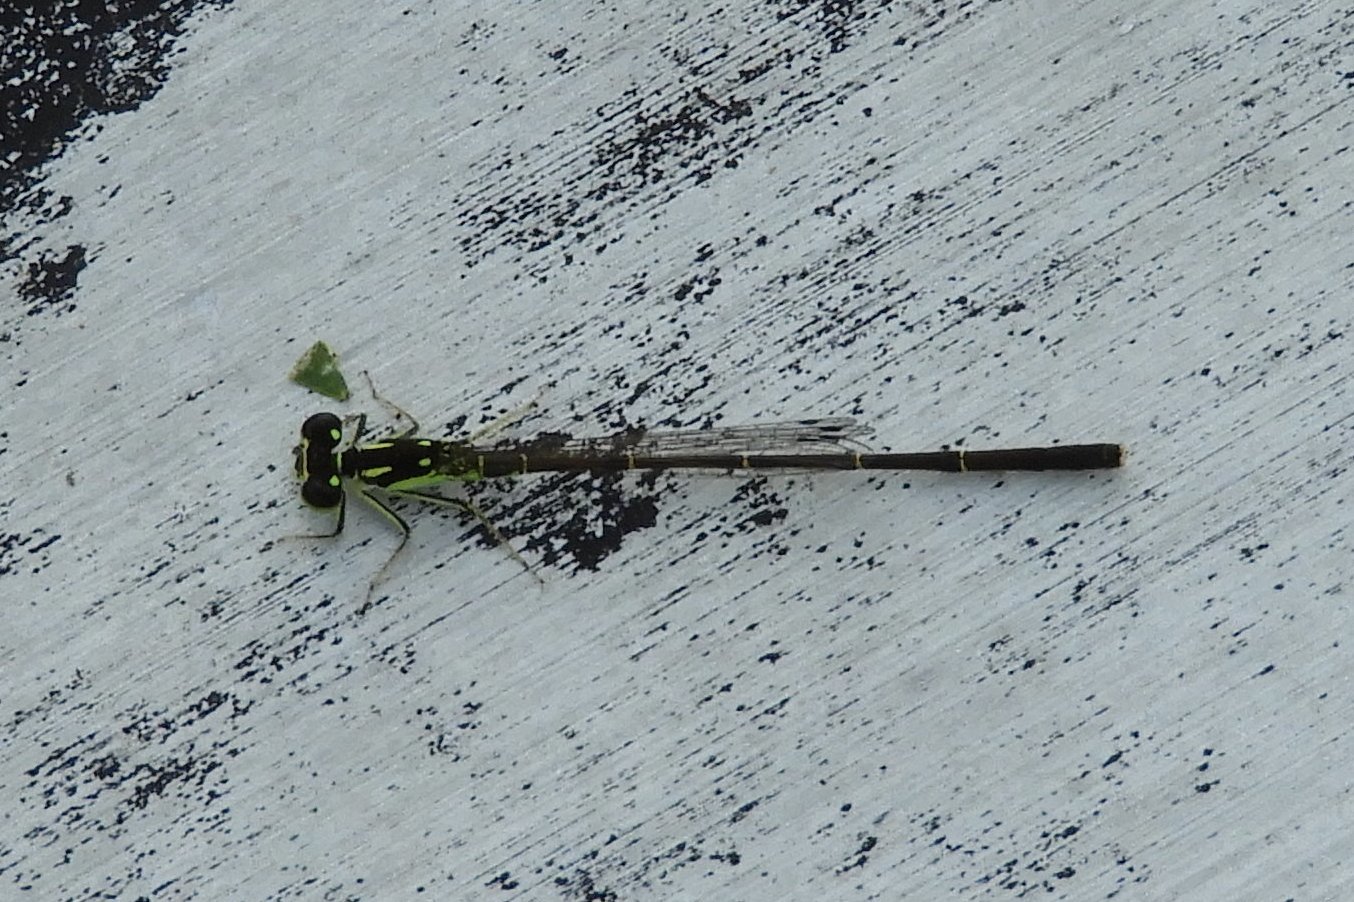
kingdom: Animalia
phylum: Arthropoda
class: Insecta
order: Odonata
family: Coenagrionidae
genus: Ischnura
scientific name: Ischnura posita
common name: Fragile forktail
